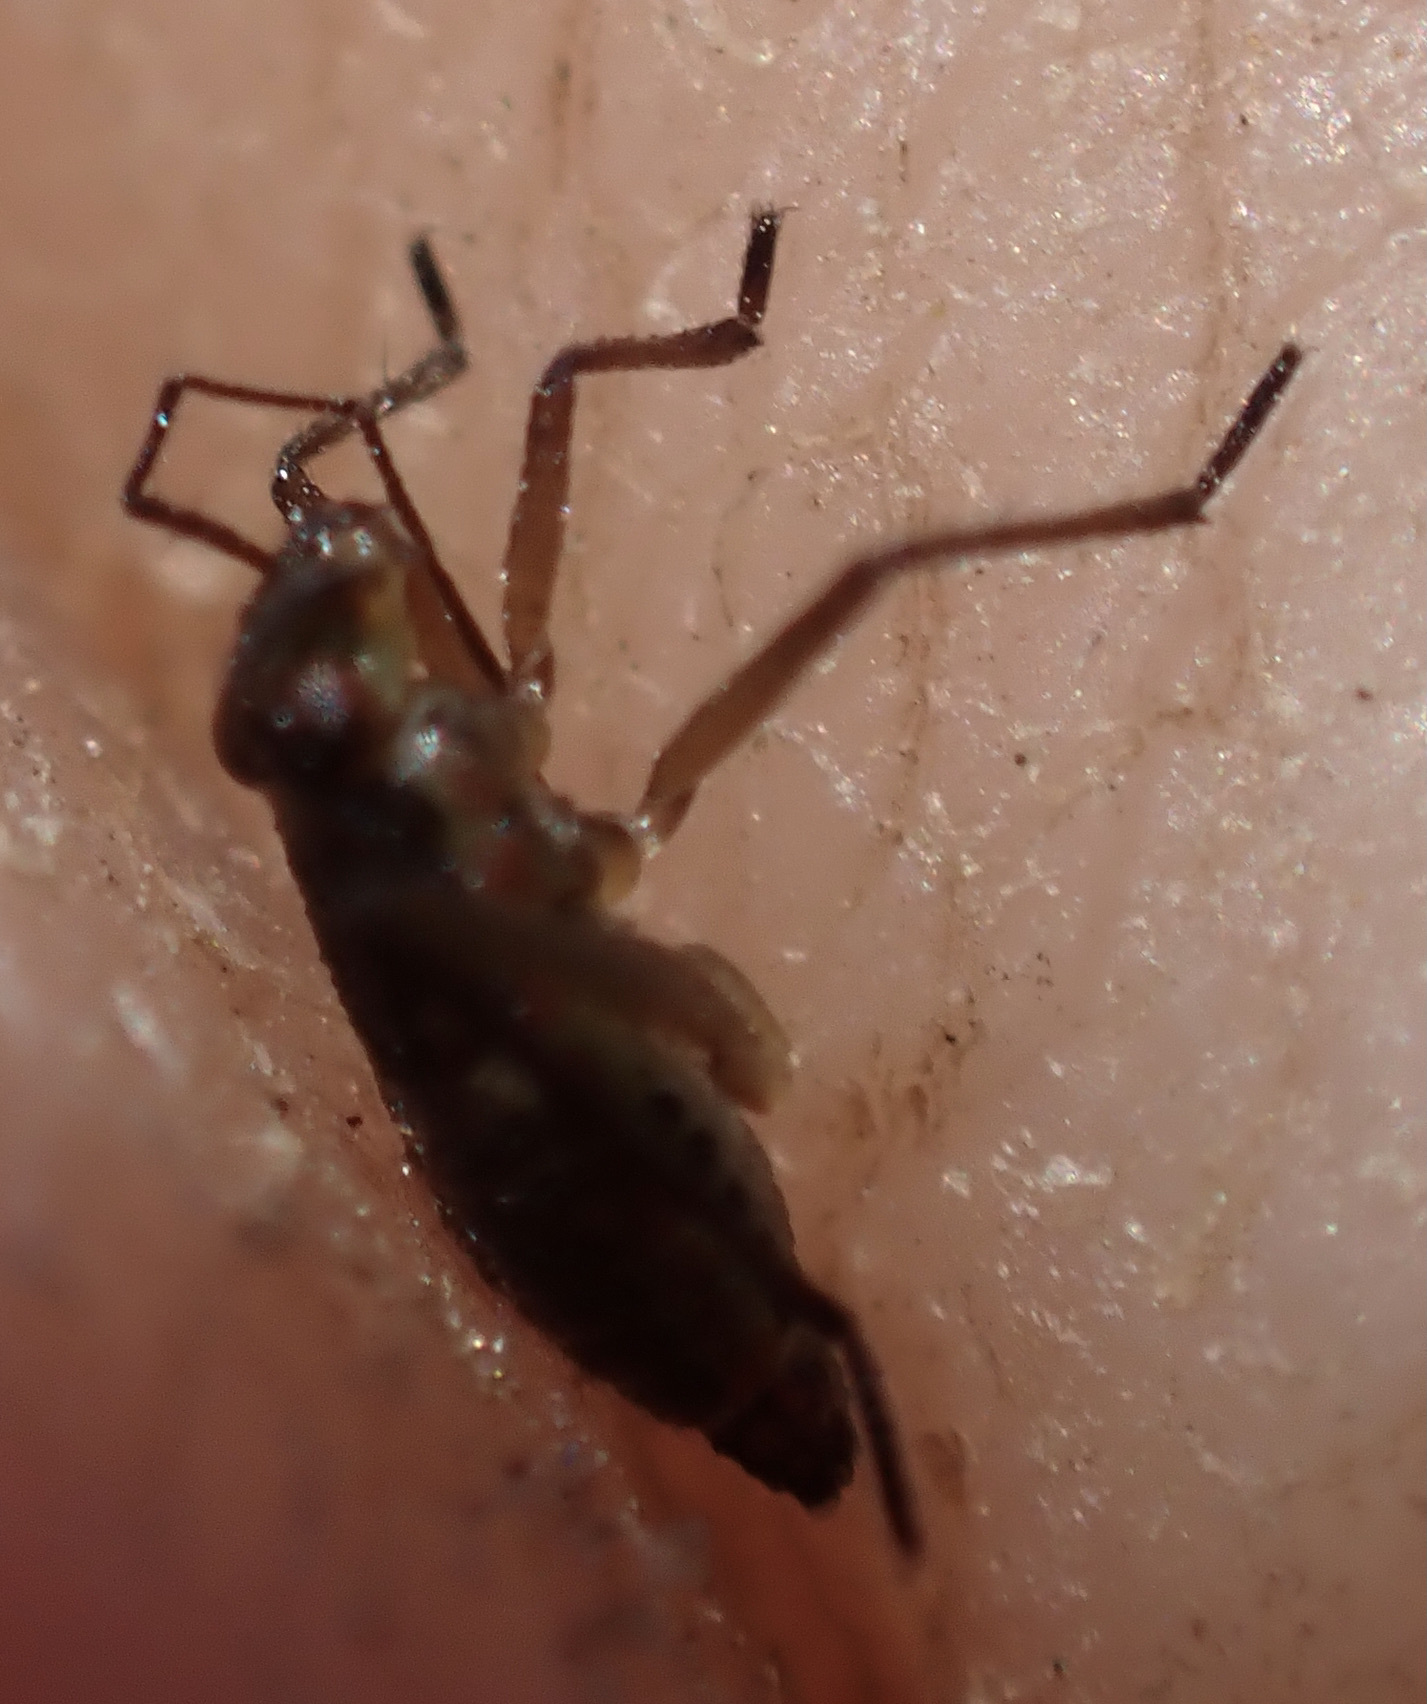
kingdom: Animalia
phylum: Arthropoda
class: Insecta
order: Hemiptera
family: Mesoveliidae
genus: Mesovelia
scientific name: Mesovelia vittigera
